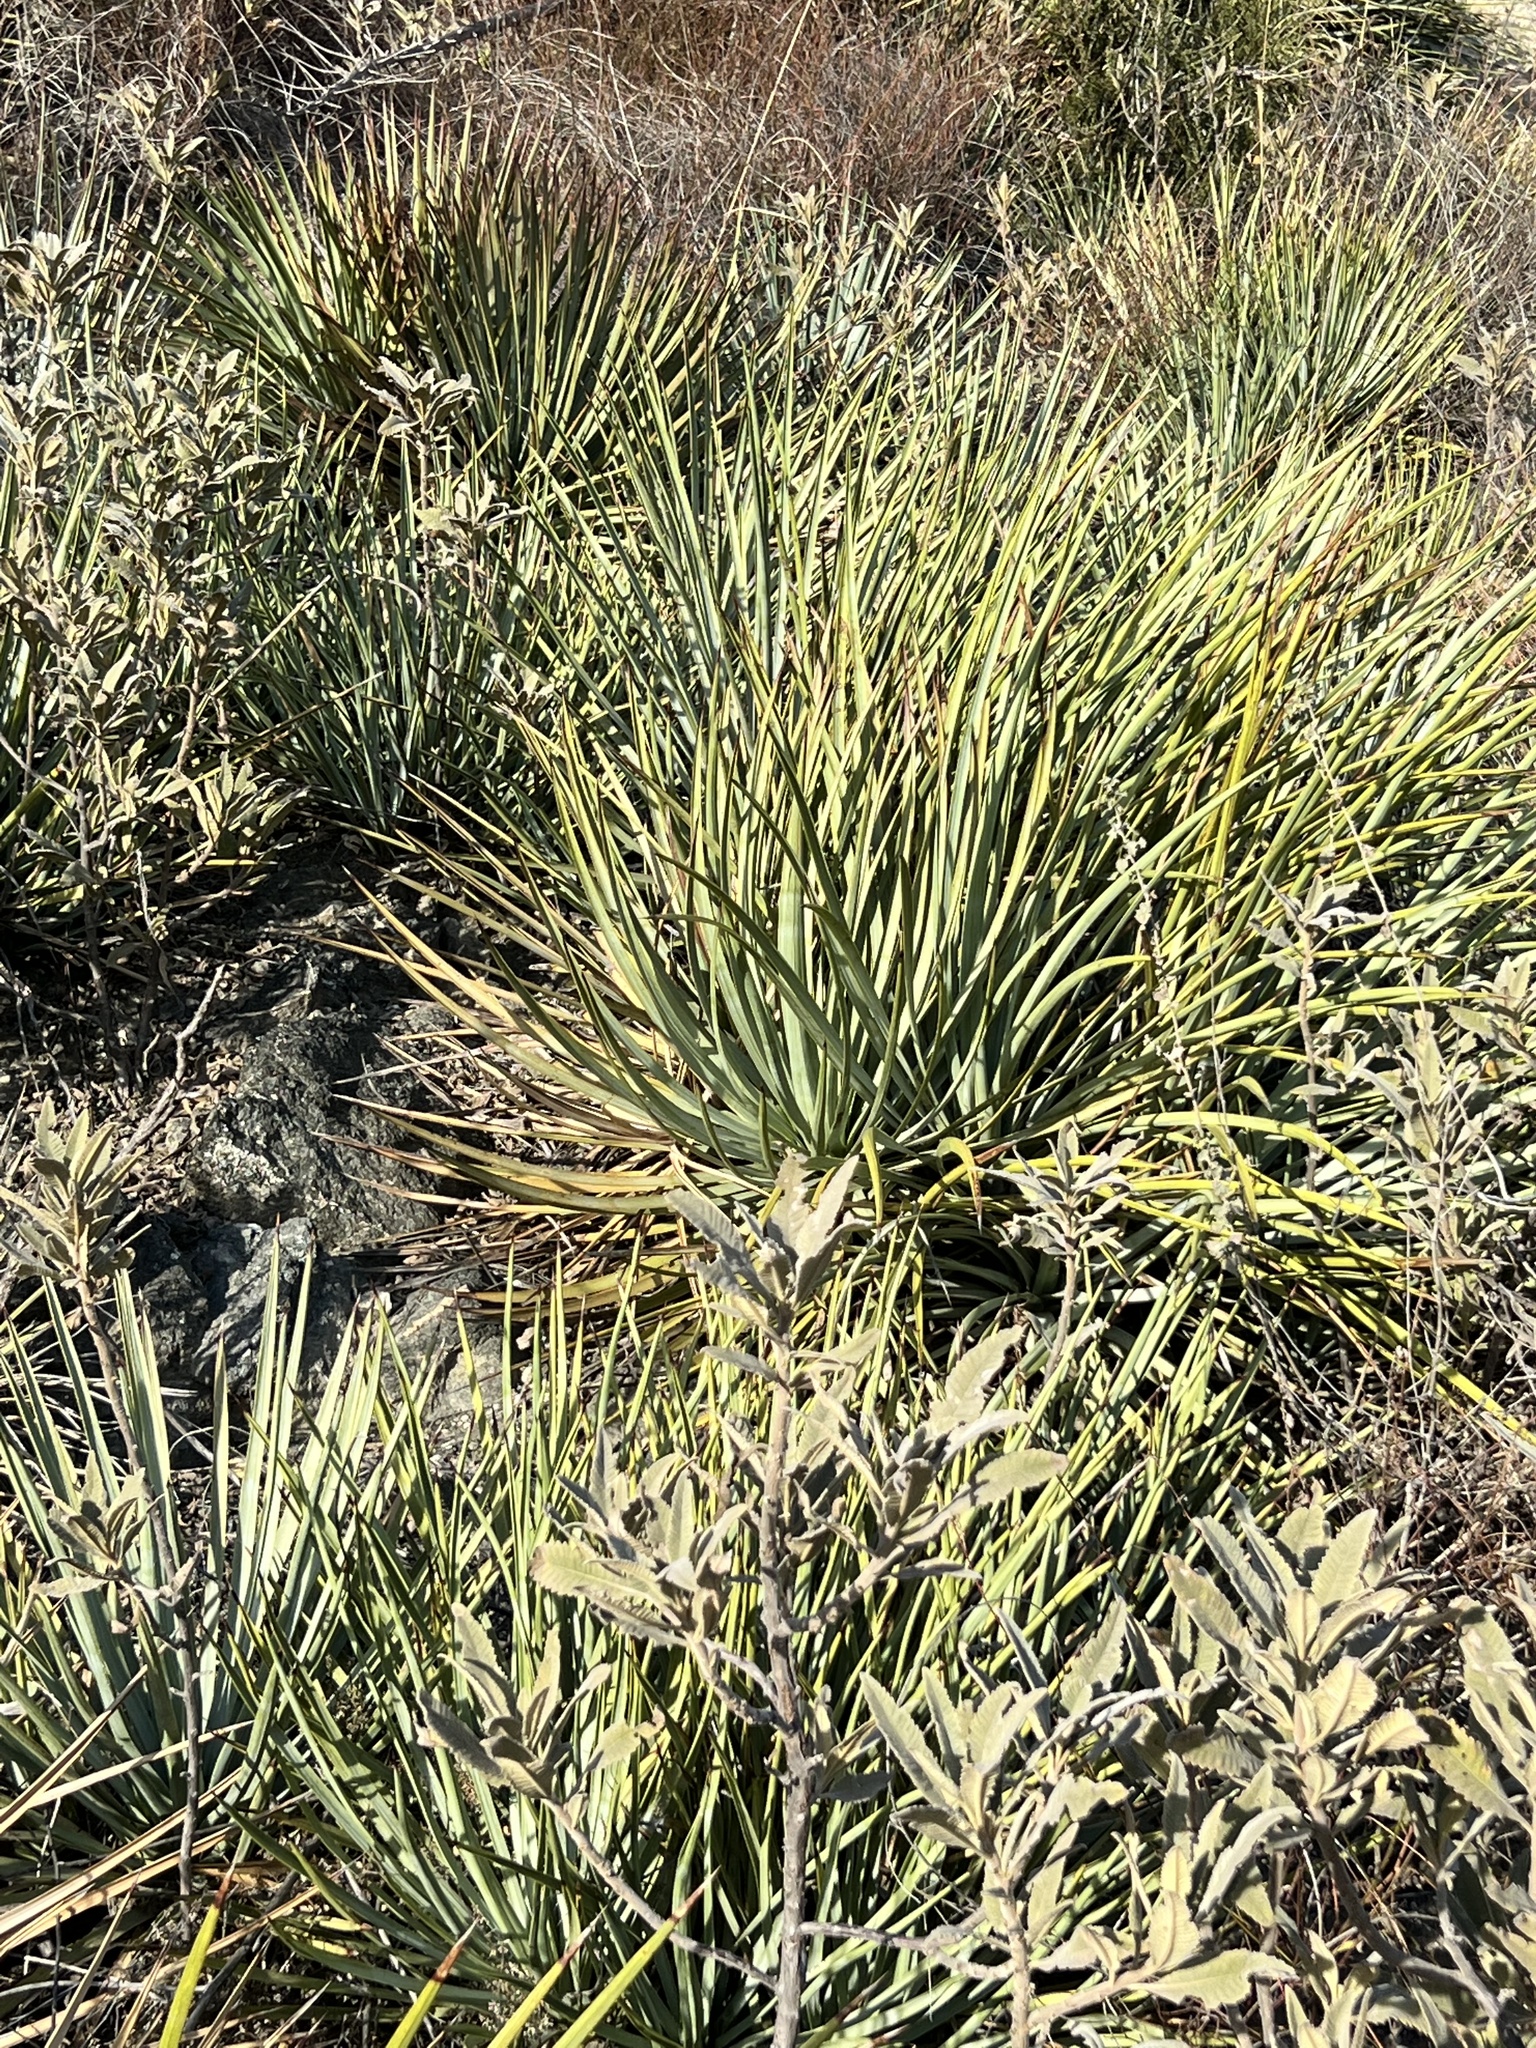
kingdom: Plantae
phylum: Tracheophyta
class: Liliopsida
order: Asparagales
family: Asparagaceae
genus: Hesperoyucca
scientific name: Hesperoyucca whipplei
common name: Our lord's-candle
